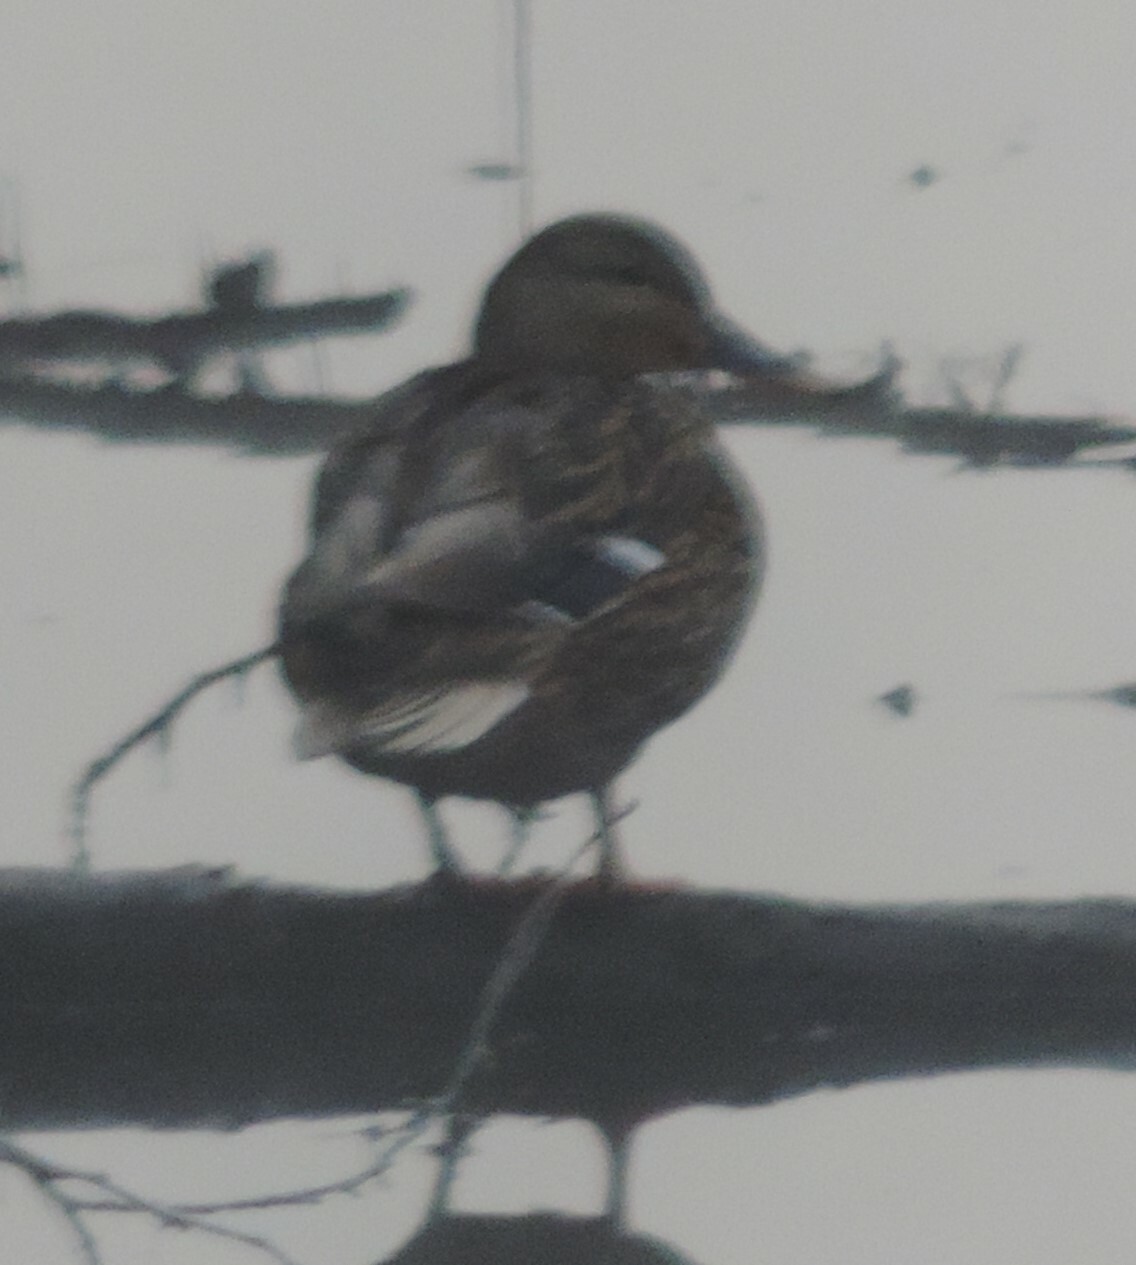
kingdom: Animalia
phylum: Chordata
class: Aves
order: Anseriformes
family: Anatidae
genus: Anas
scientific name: Anas platyrhynchos
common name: Mallard
